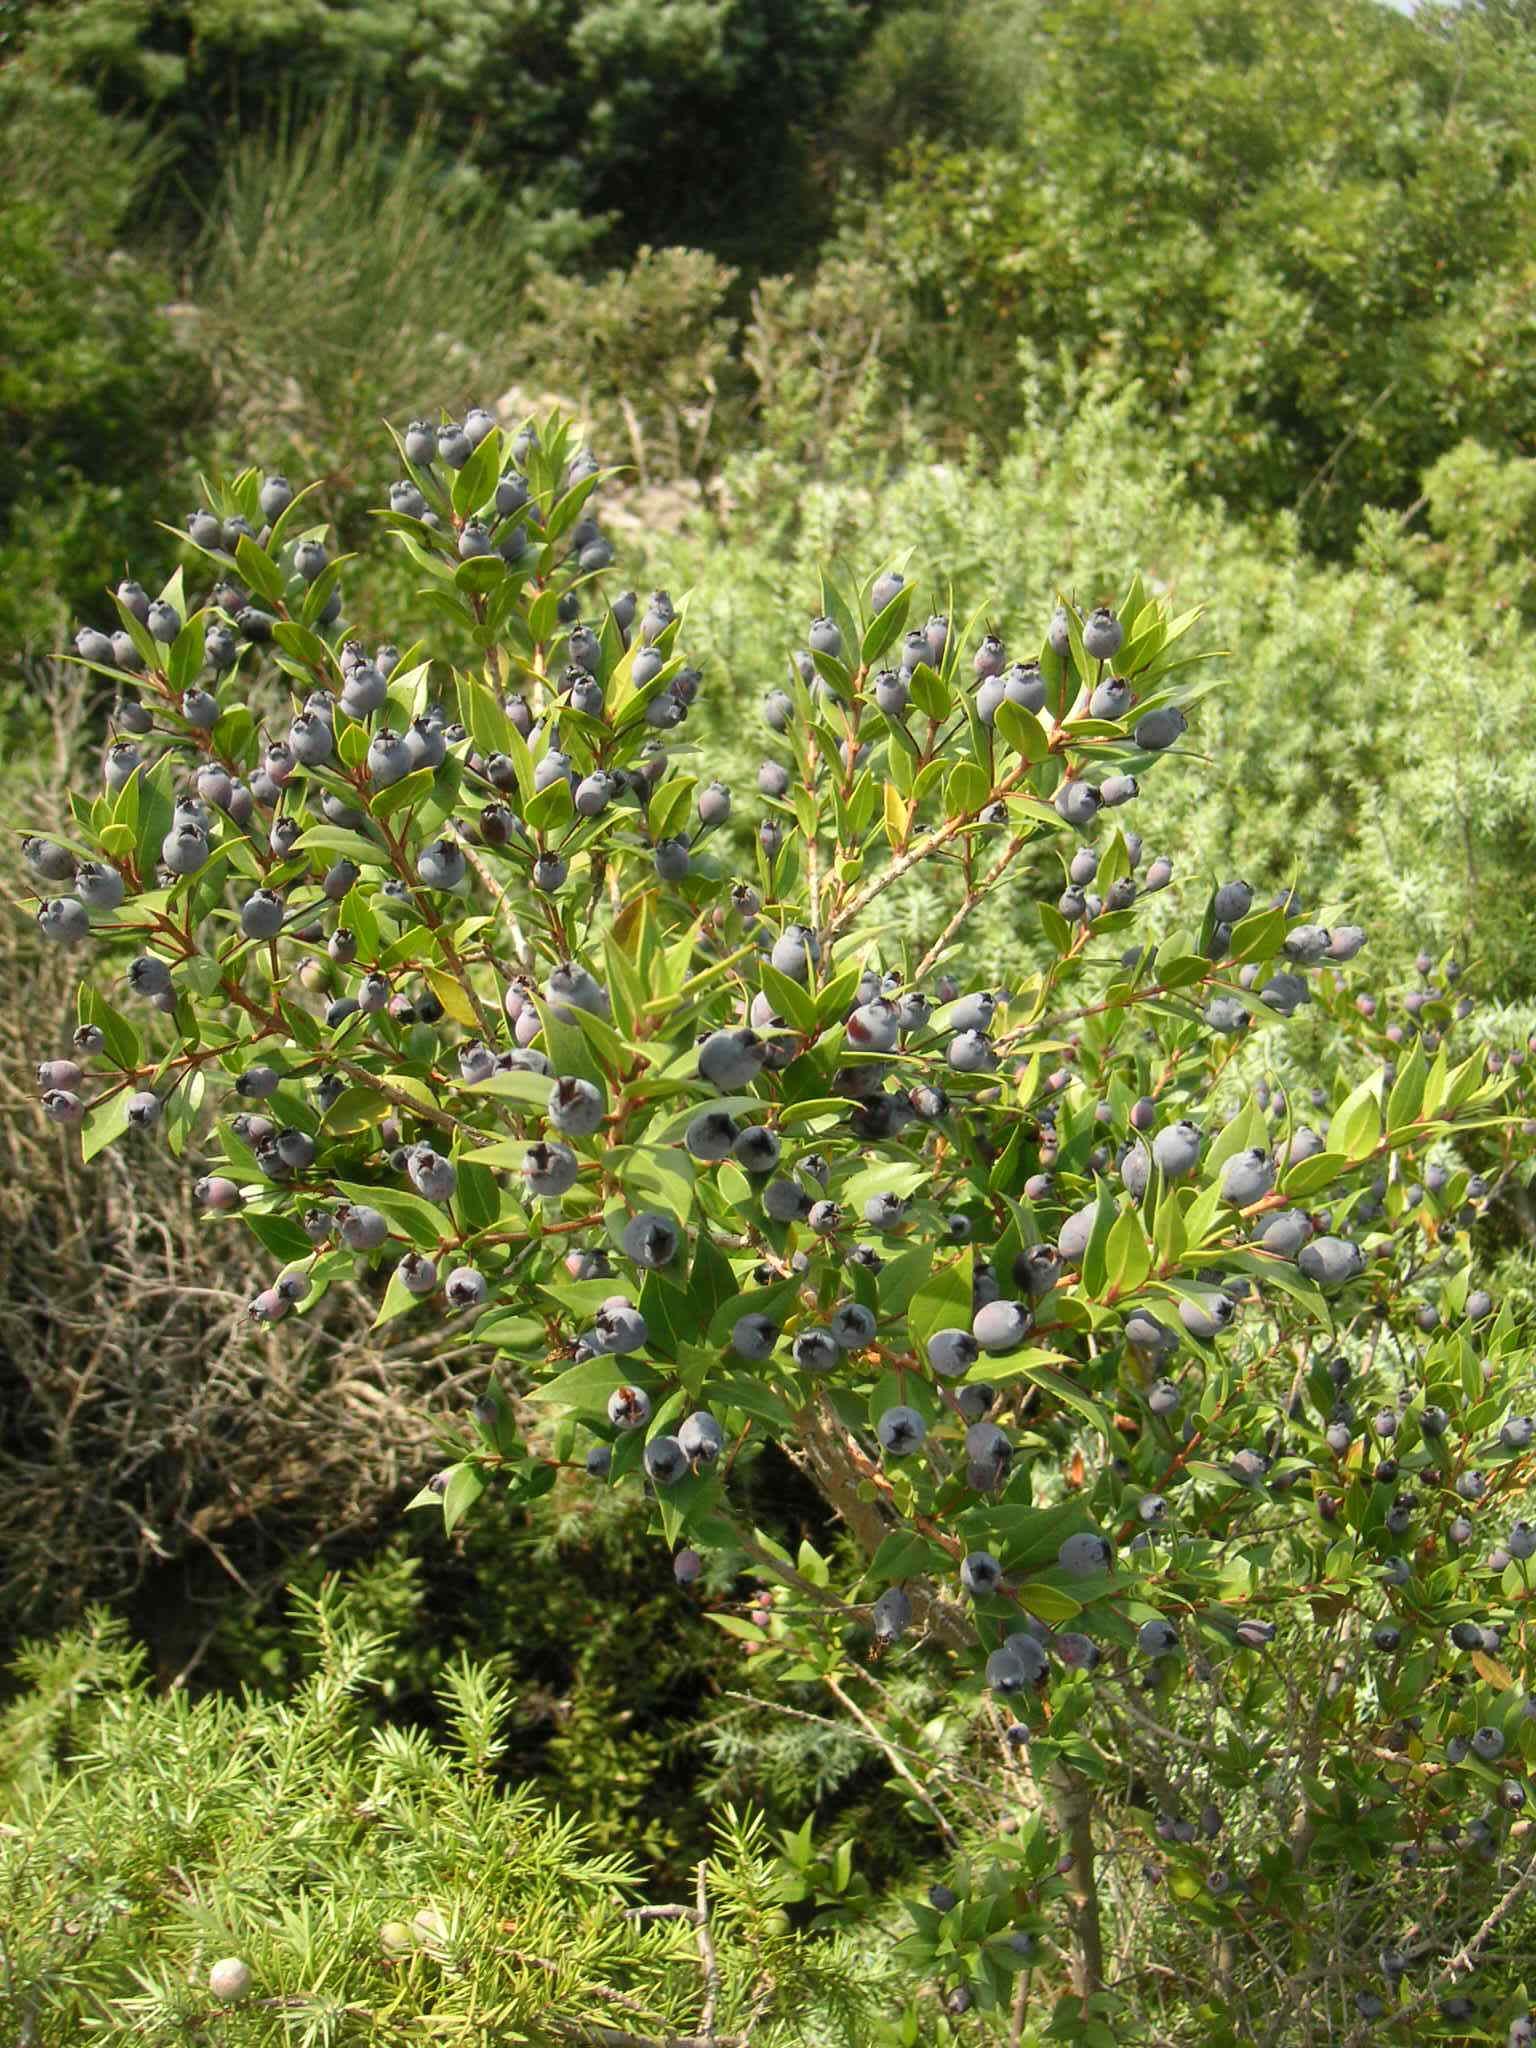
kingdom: Plantae
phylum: Tracheophyta
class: Magnoliopsida
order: Myrtales
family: Myrtaceae
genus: Myrtus
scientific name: Myrtus communis
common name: Myrtle
